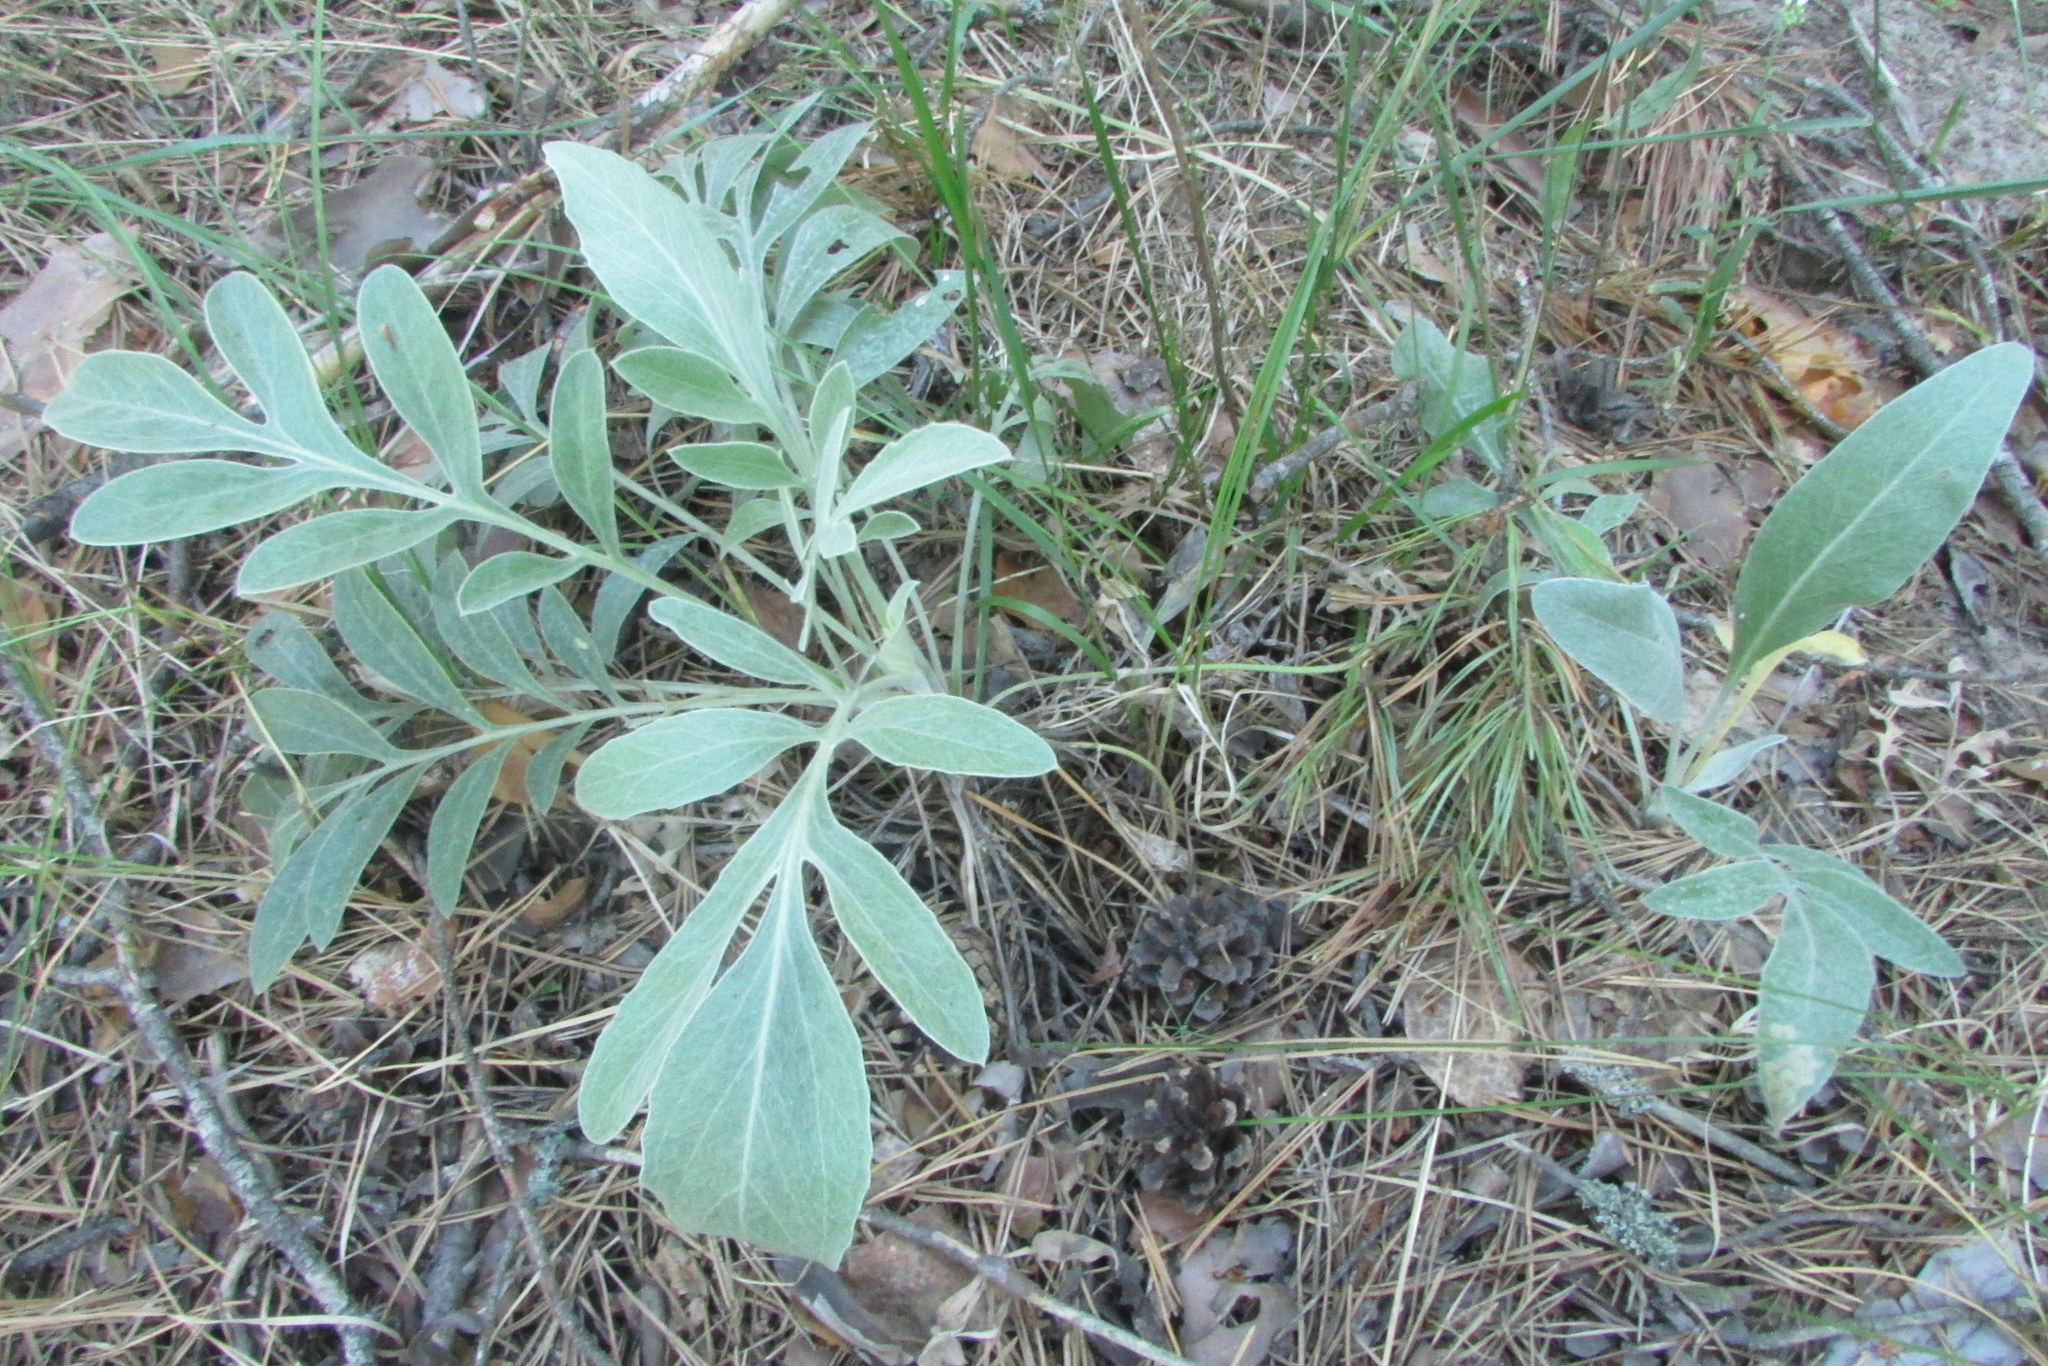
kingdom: Plantae
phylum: Tracheophyta
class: Magnoliopsida
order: Asterales
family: Asteraceae
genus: Psephellus
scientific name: Psephellus sumensis
